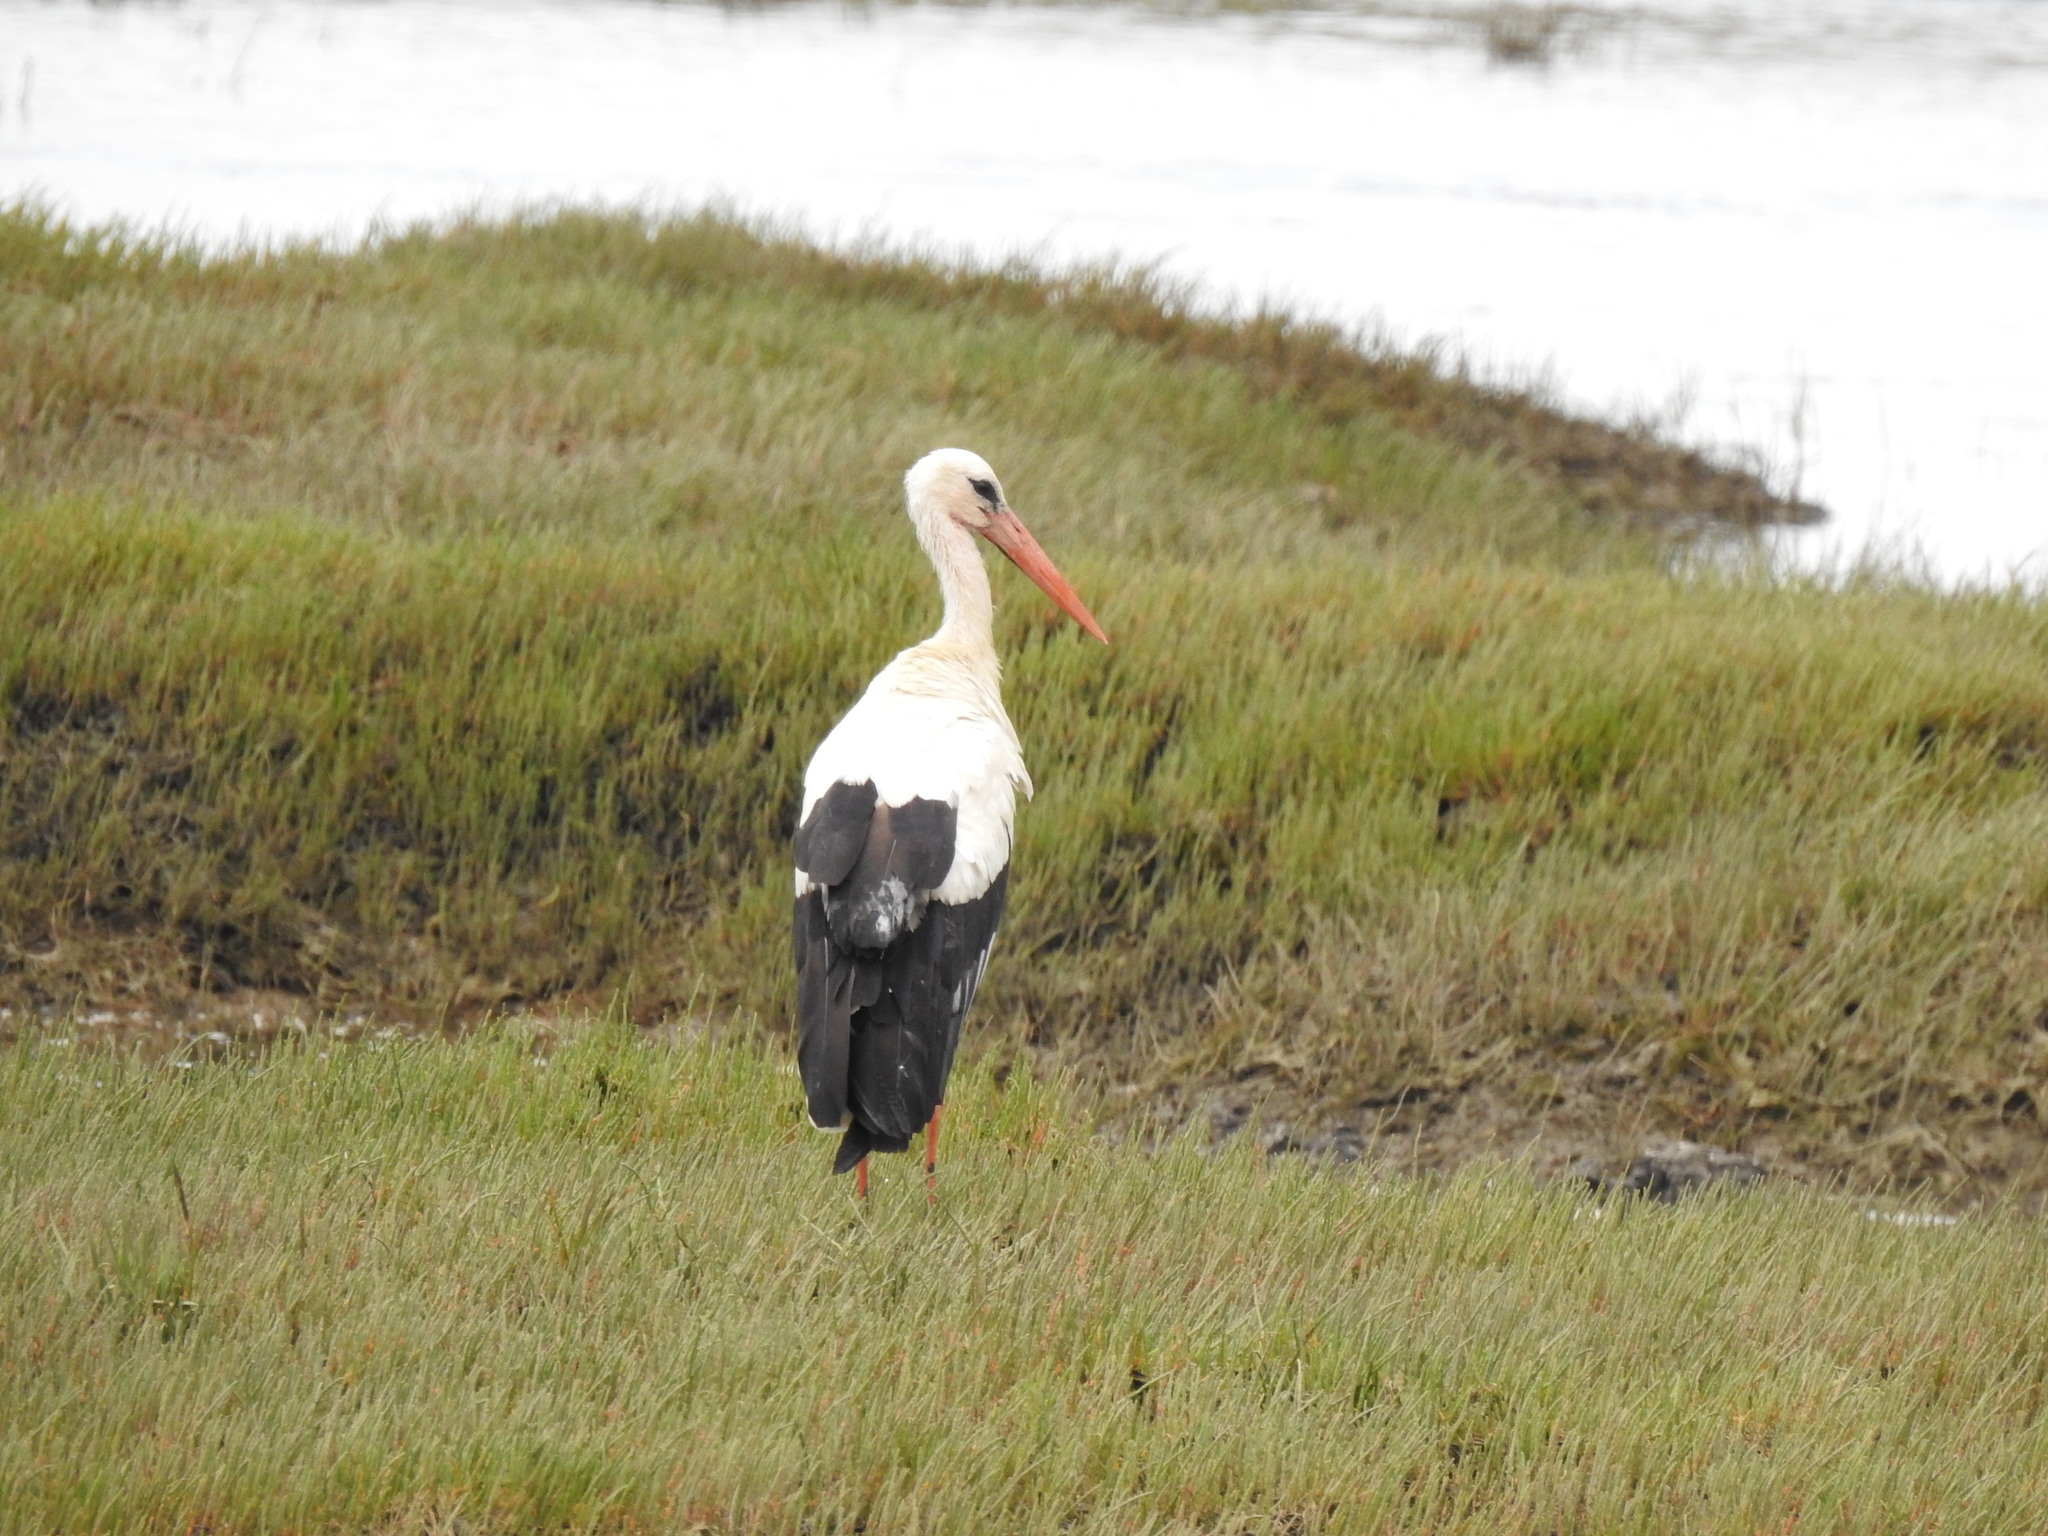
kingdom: Animalia
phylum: Chordata
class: Aves
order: Ciconiiformes
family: Ciconiidae
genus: Ciconia
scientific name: Ciconia ciconia
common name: White stork
